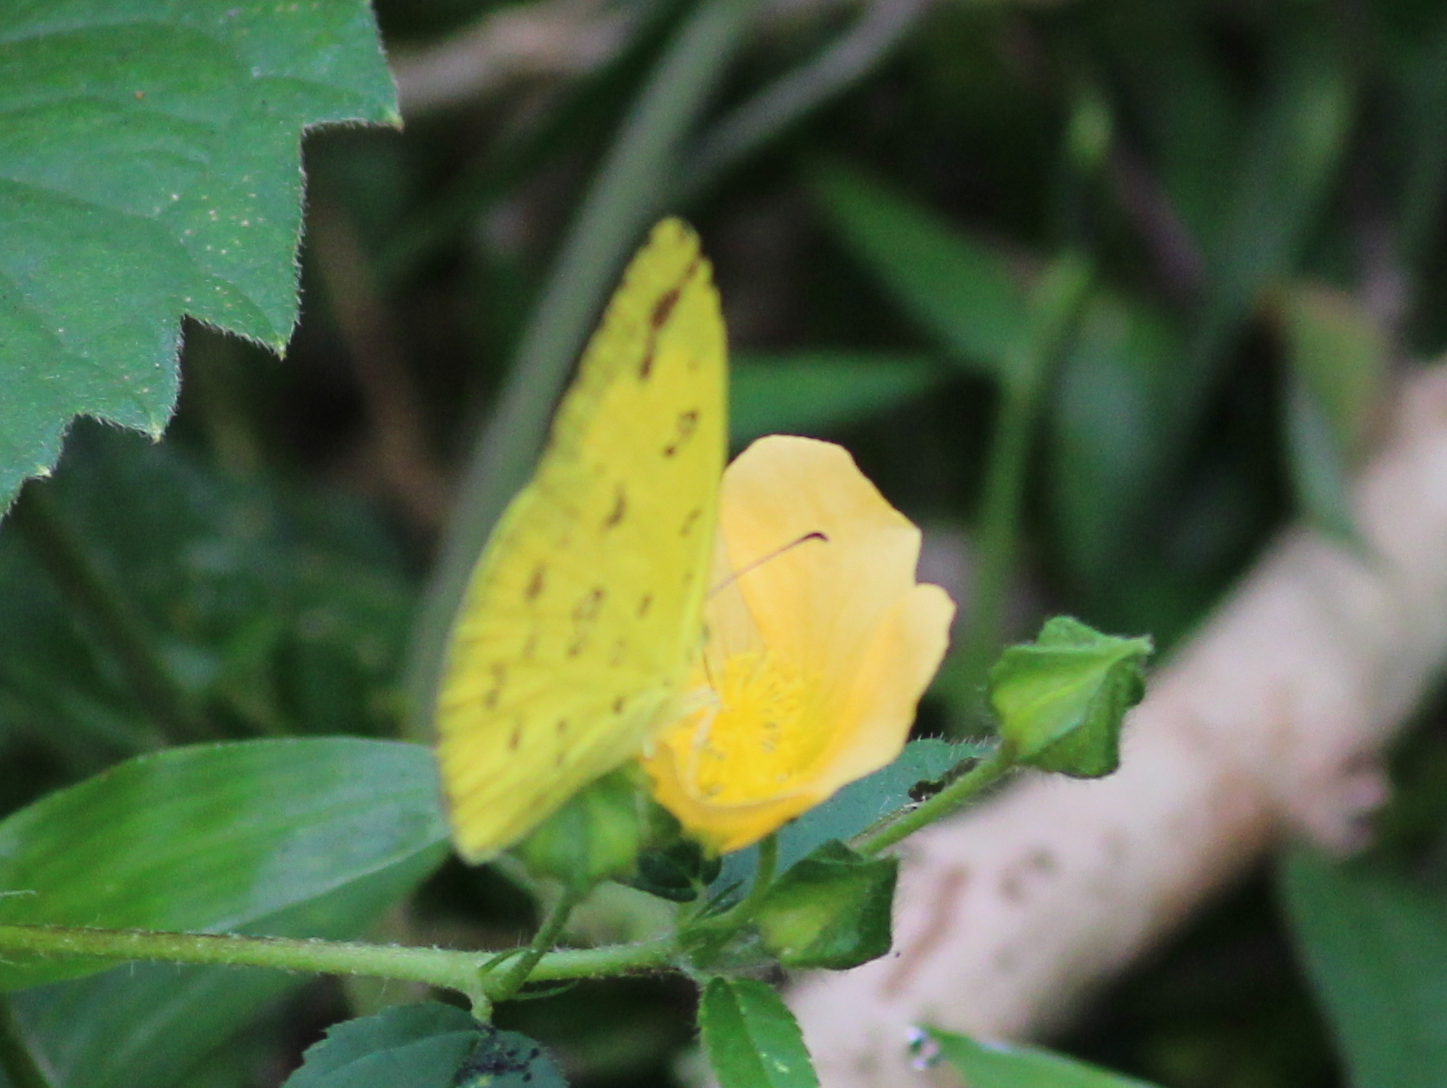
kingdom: Animalia
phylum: Arthropoda
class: Insecta
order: Lepidoptera
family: Pieridae
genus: Eurema
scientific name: Eurema hecabe
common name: Pale grass yellow
